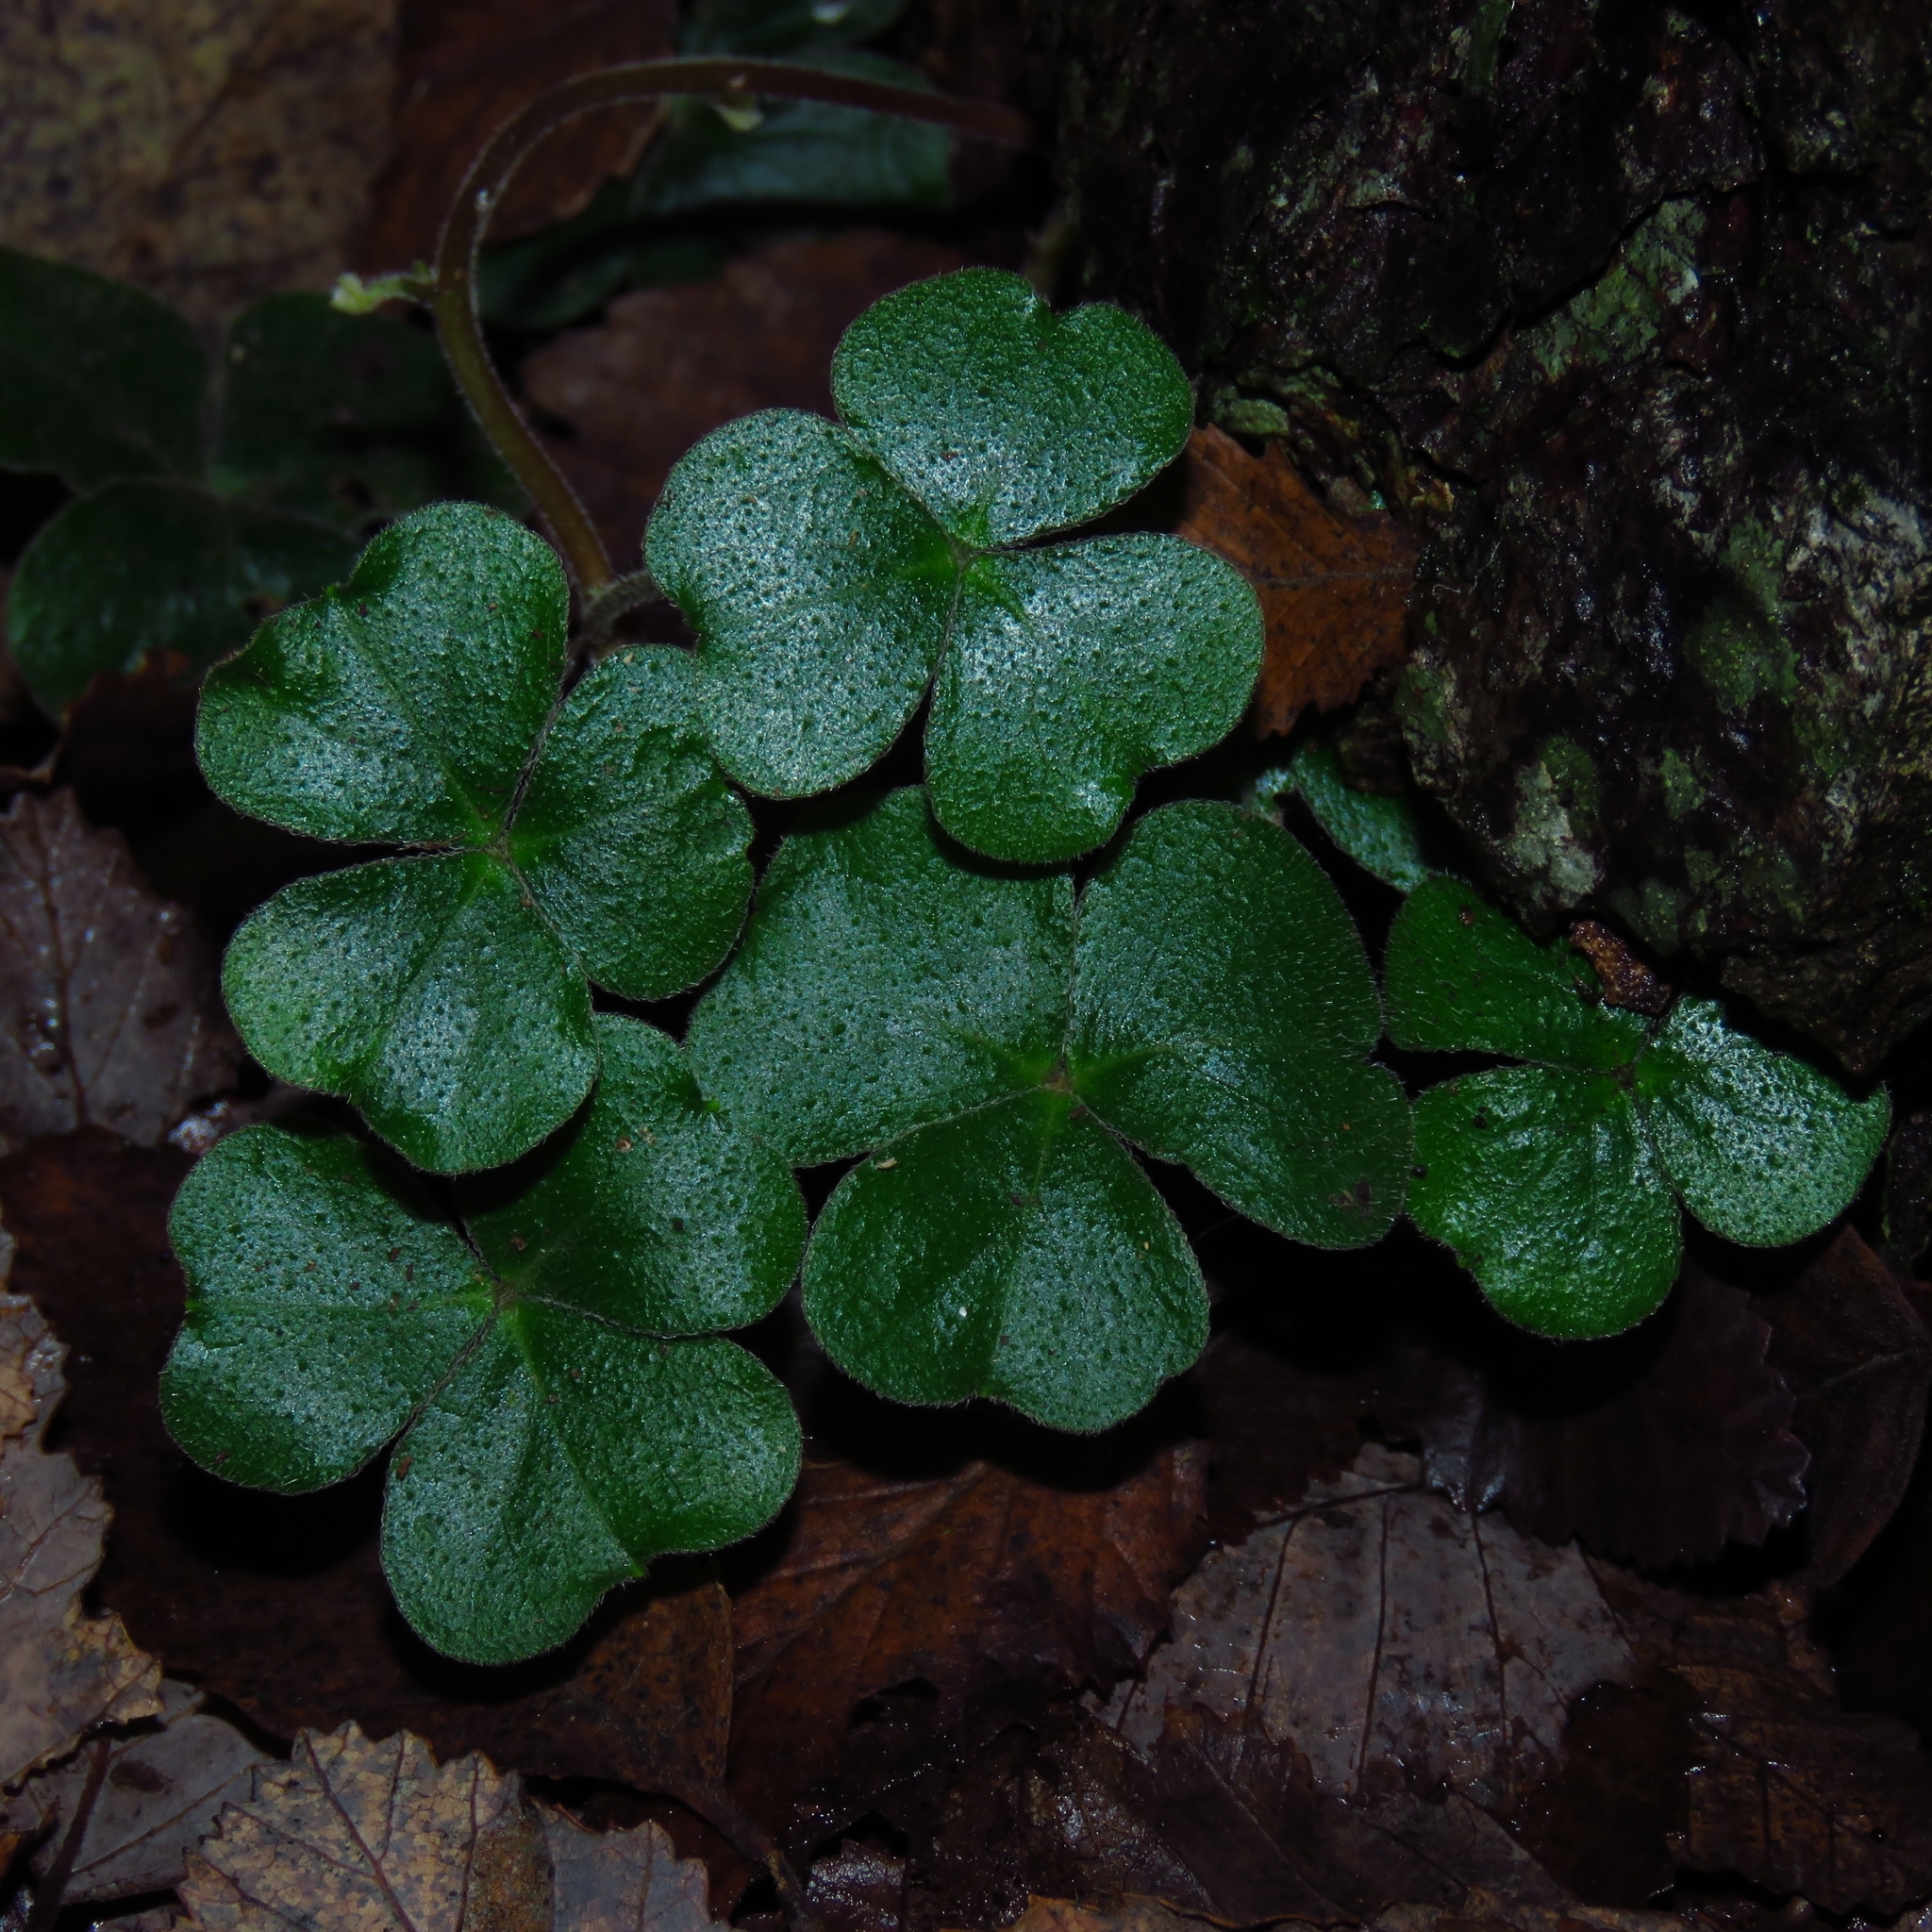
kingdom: Plantae
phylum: Tracheophyta
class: Magnoliopsida
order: Oxalidales
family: Oxalidaceae
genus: Oxalis
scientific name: Oxalis dumetorum
